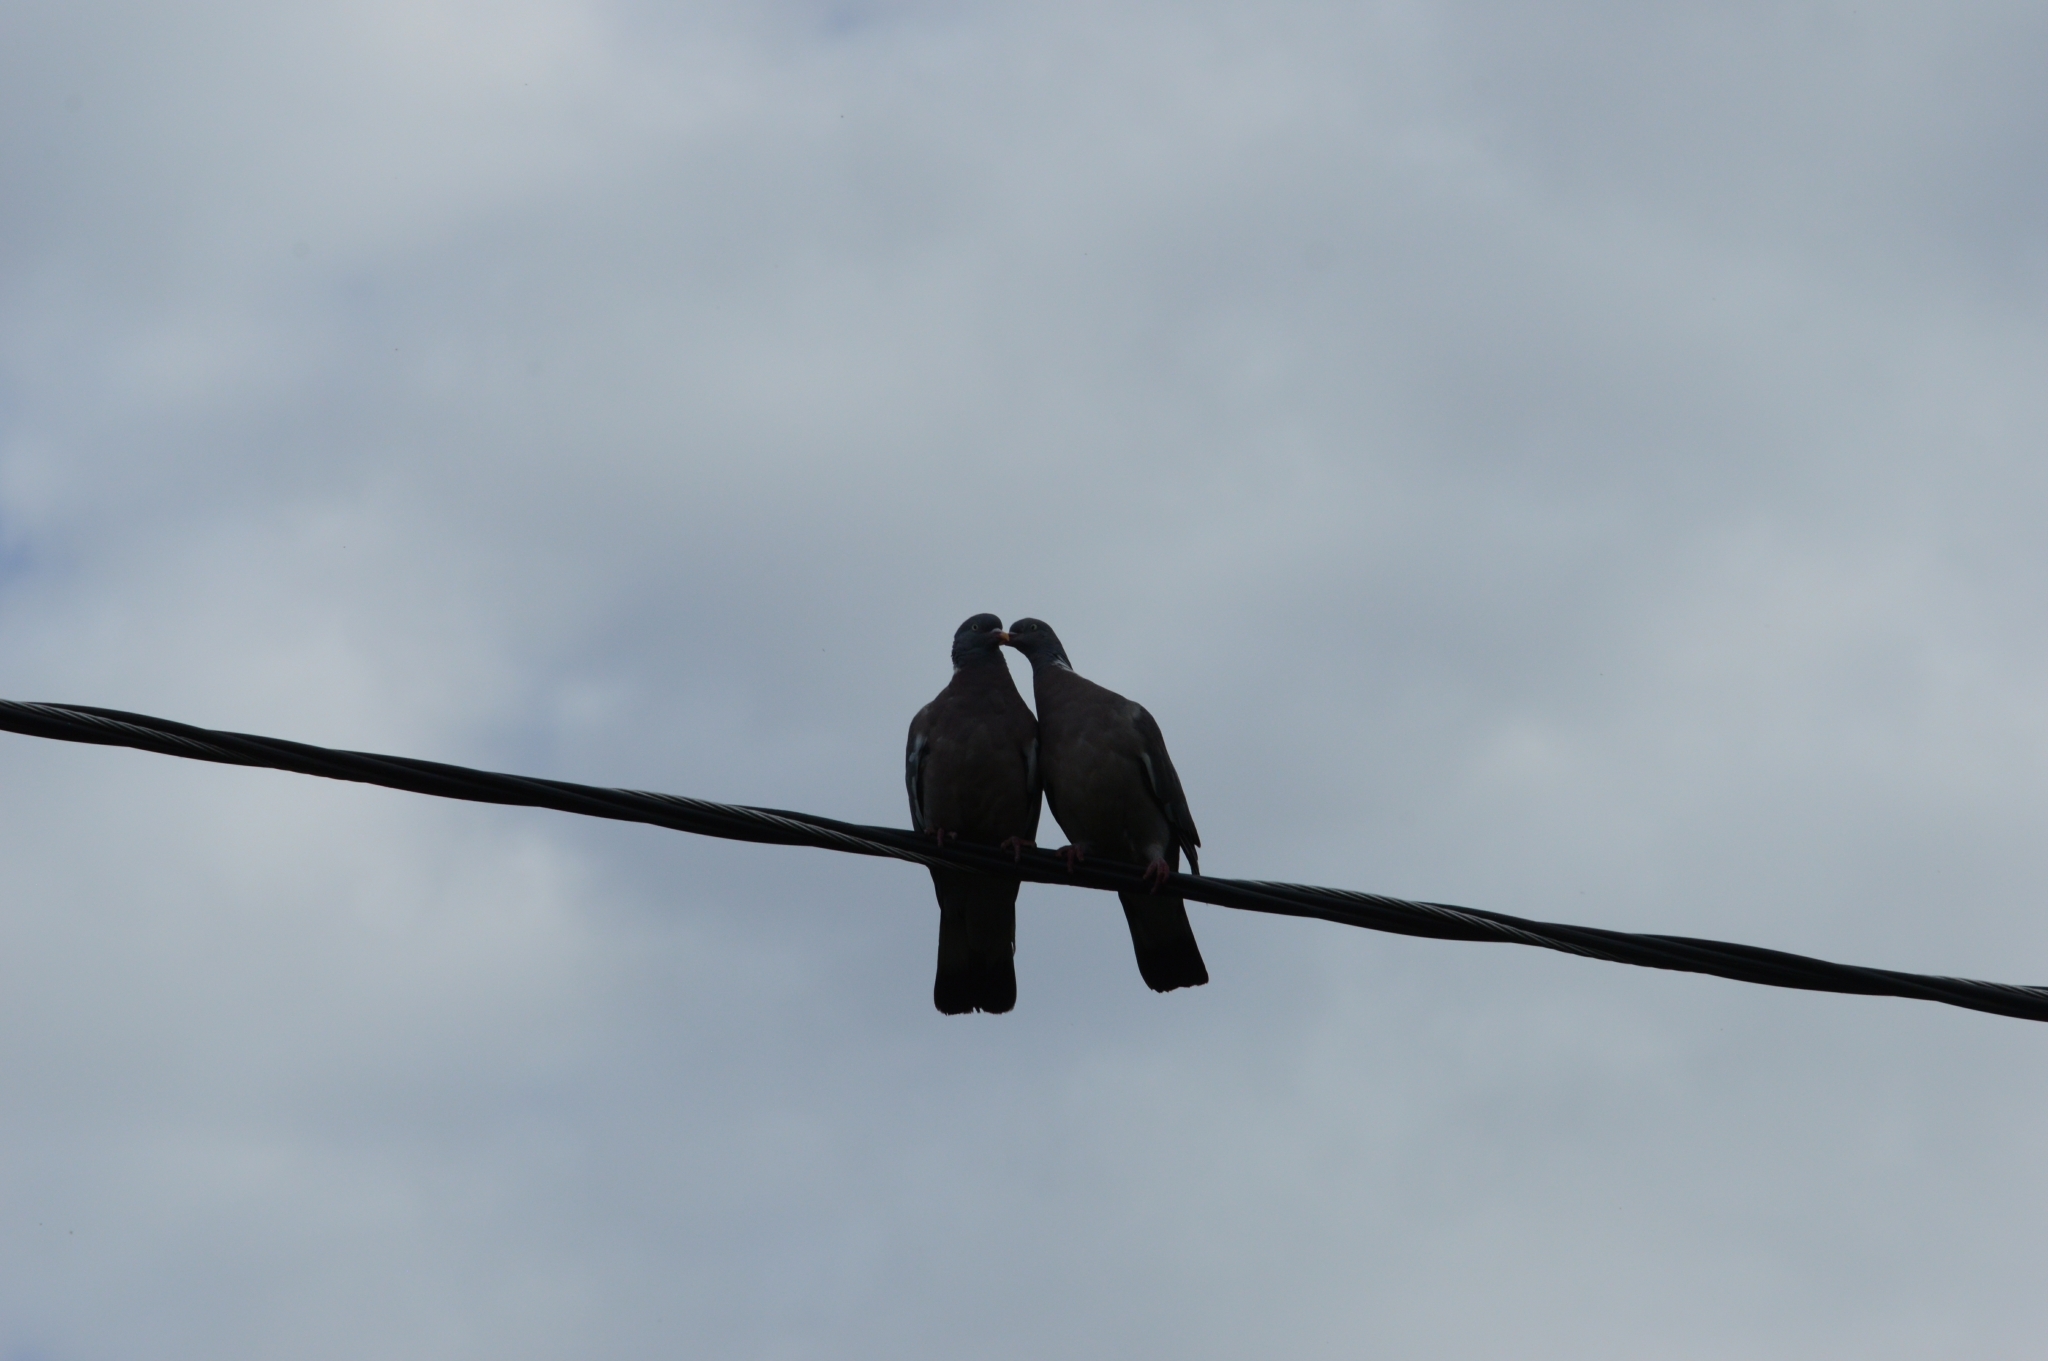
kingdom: Animalia
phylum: Chordata
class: Aves
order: Columbiformes
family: Columbidae
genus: Columba
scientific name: Columba palumbus
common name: Common wood pigeon
